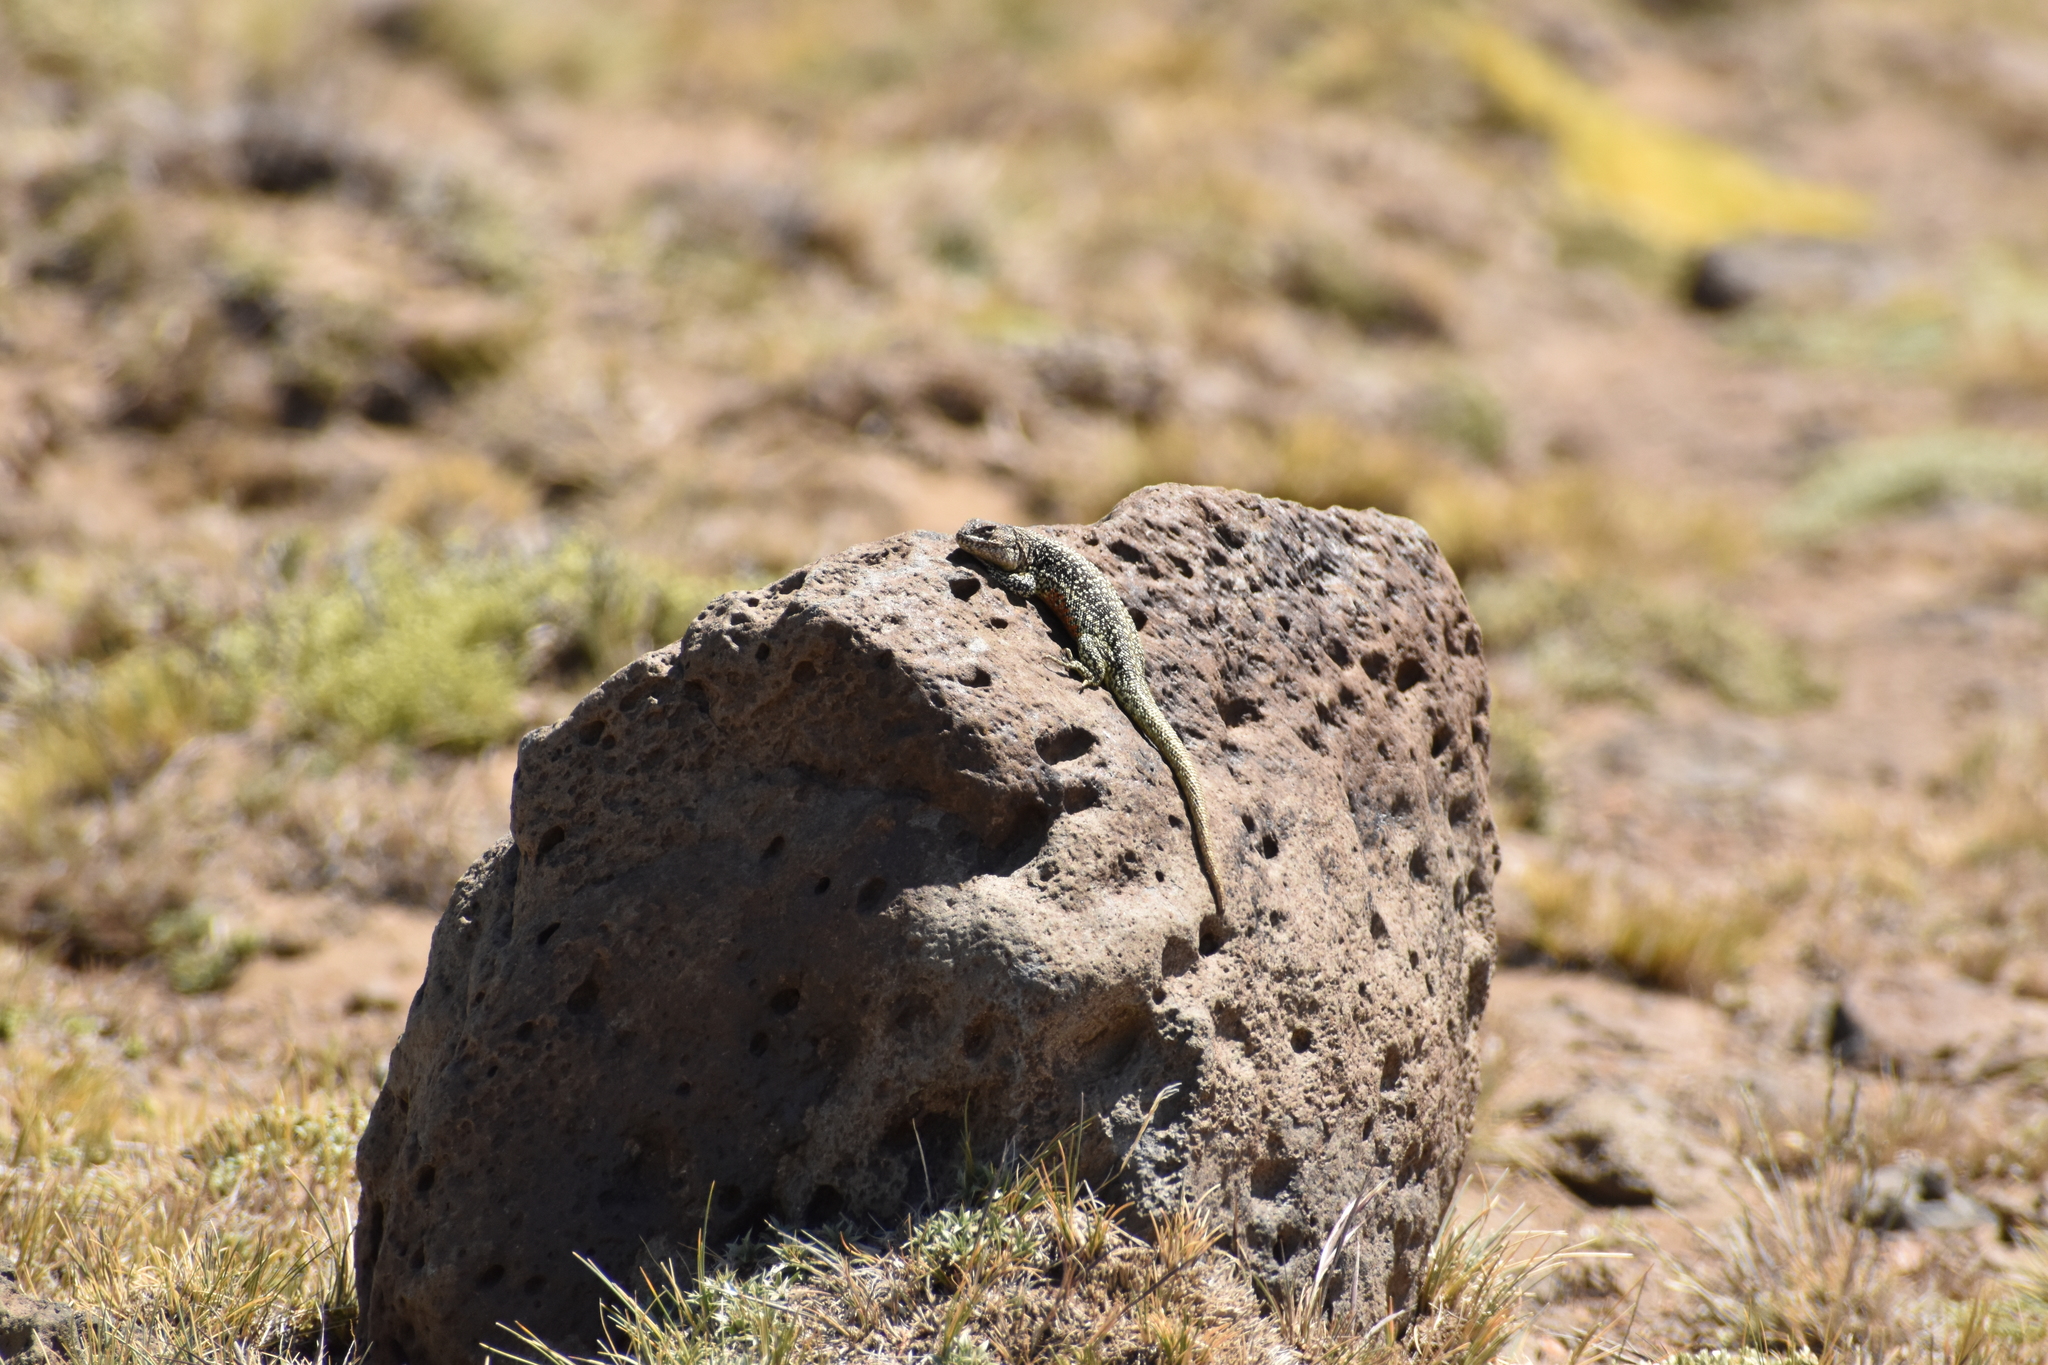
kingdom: Animalia
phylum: Chordata
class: Squamata
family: Liolaemidae
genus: Liolaemus
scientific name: Liolaemus archeforus
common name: Main tree iguana
